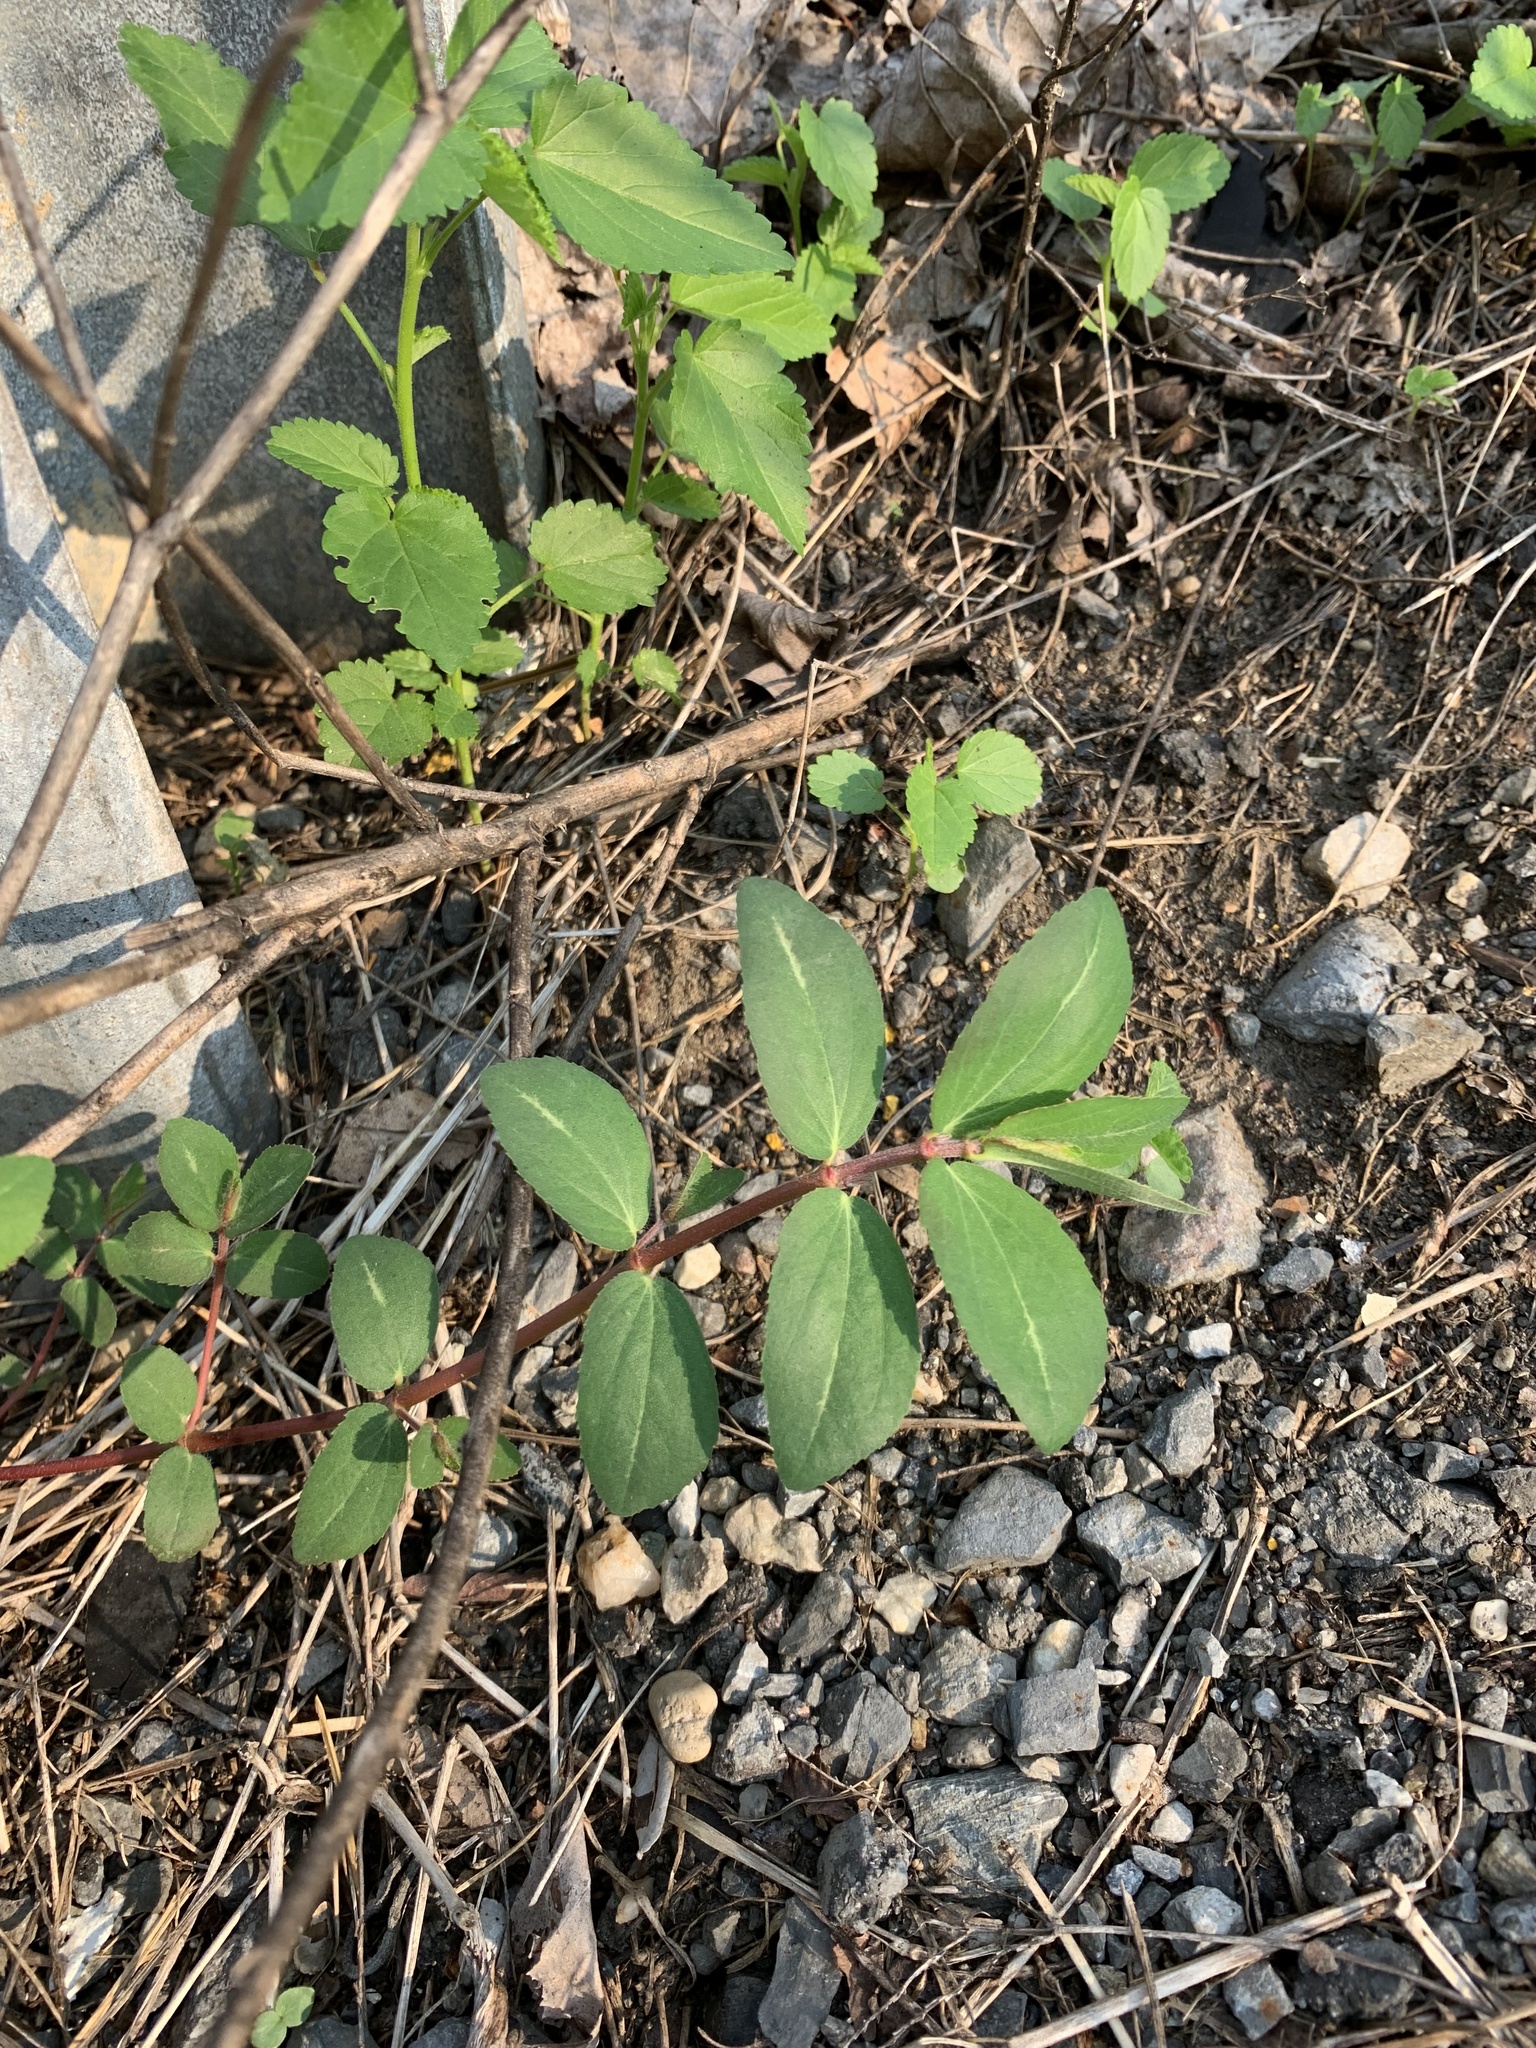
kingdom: Plantae
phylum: Tracheophyta
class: Magnoliopsida
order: Malpighiales
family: Euphorbiaceae
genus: Euphorbia
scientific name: Euphorbia nutans
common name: Eyebane
